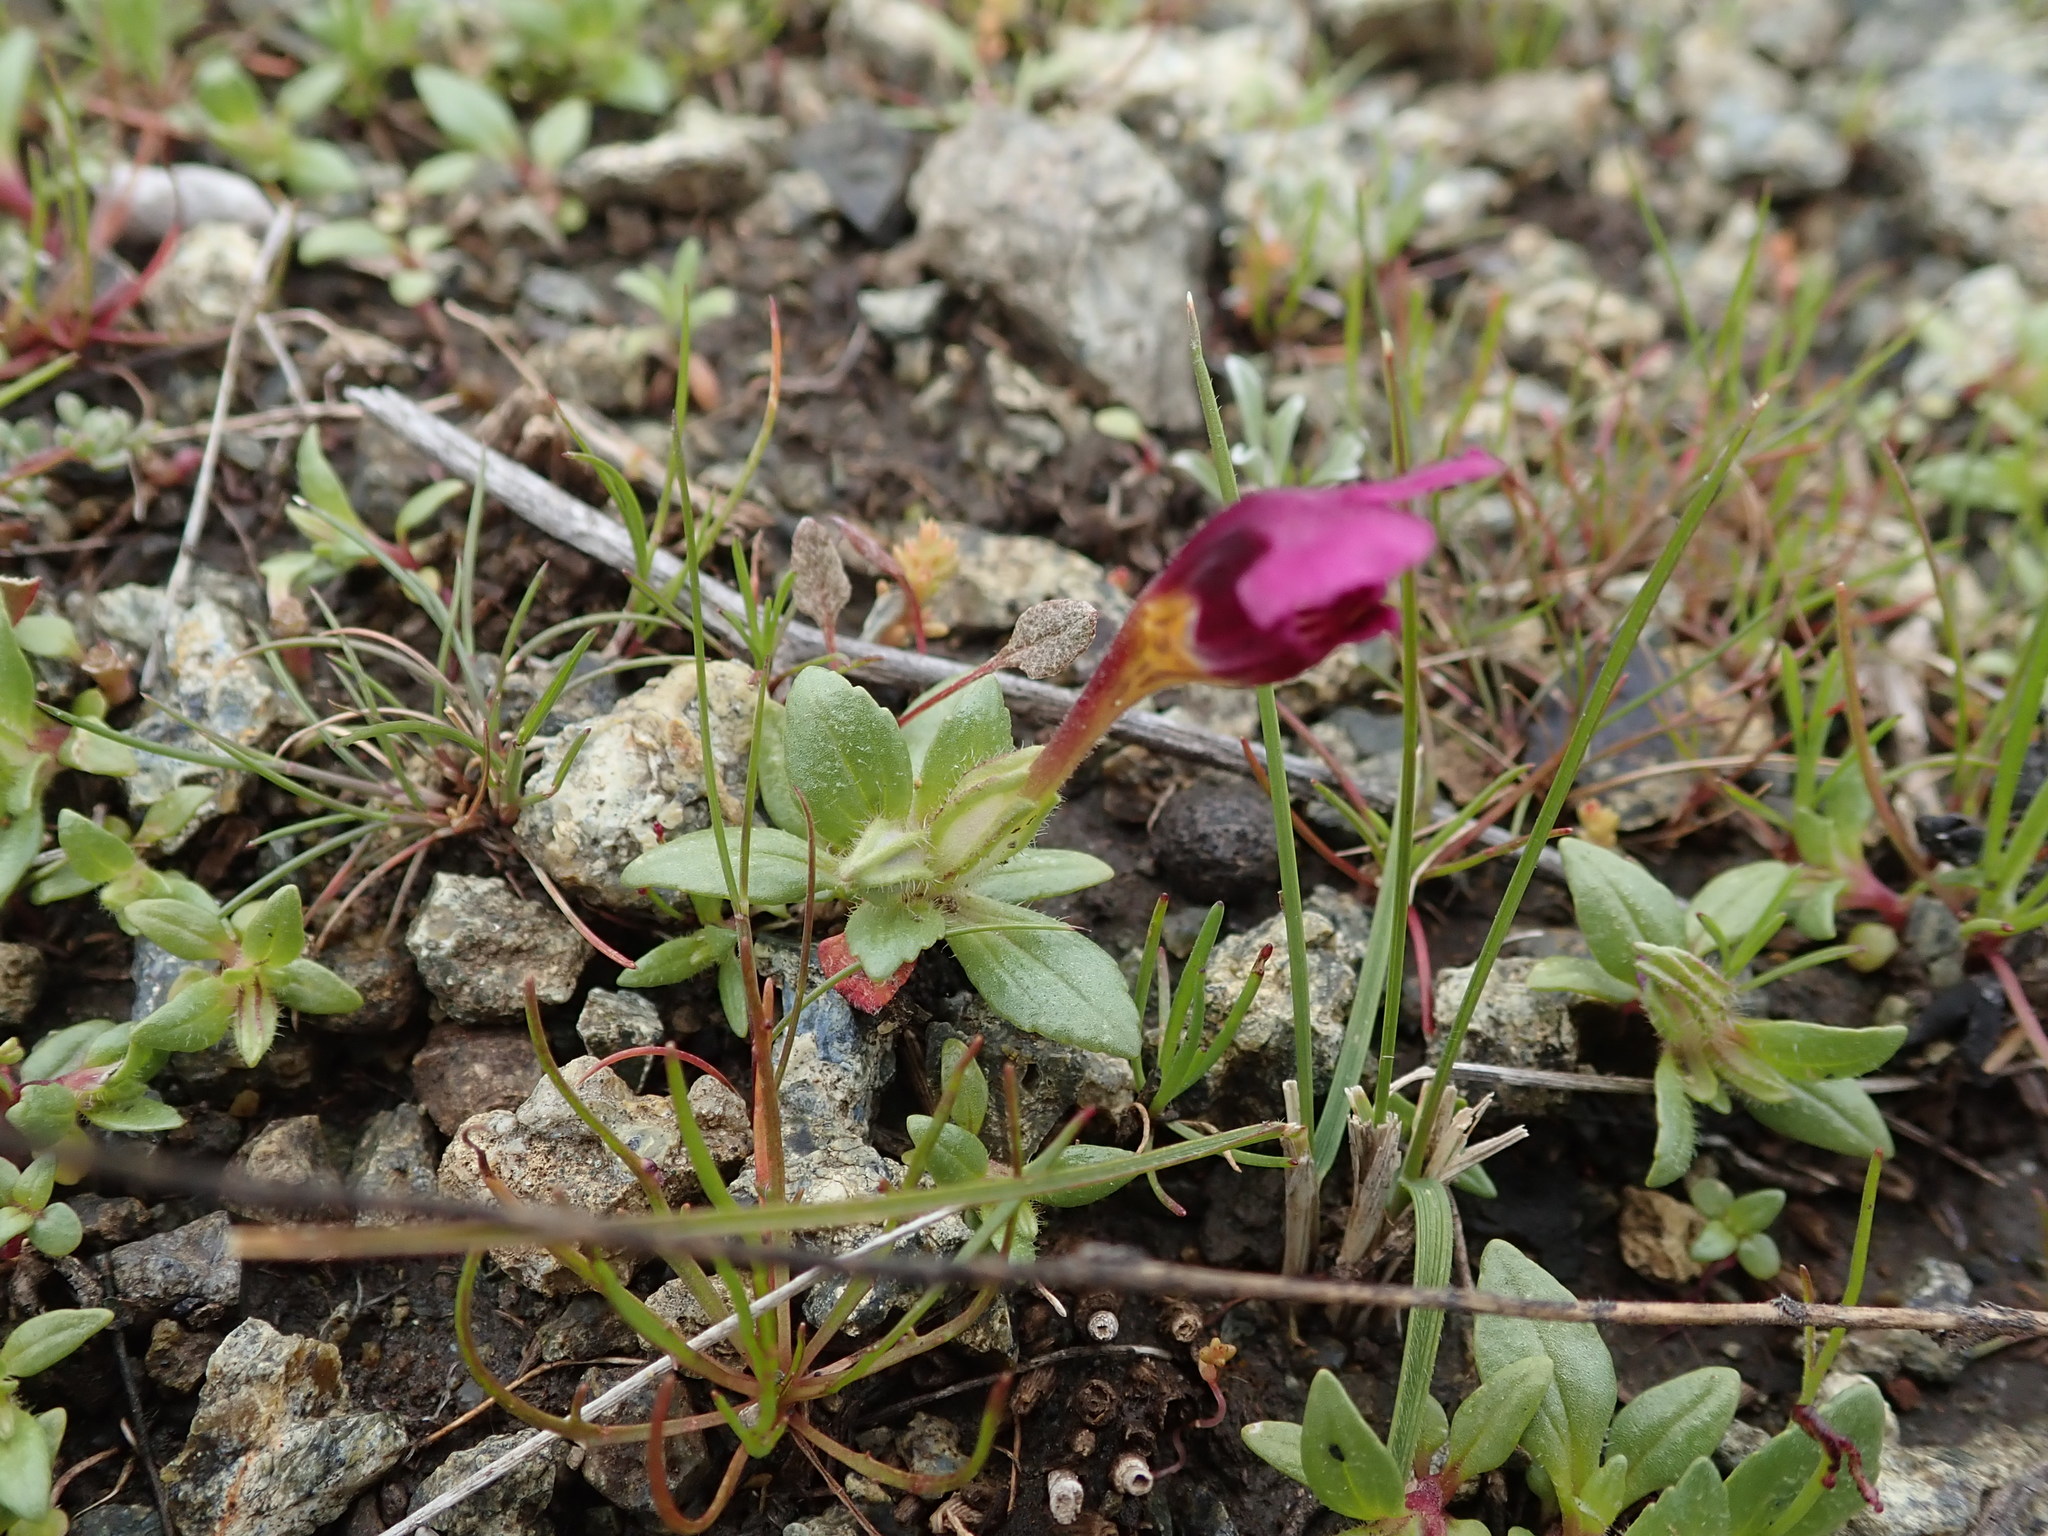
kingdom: Plantae
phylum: Tracheophyta
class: Magnoliopsida
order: Lamiales
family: Phrymaceae
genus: Diplacus
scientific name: Diplacus douglasii
